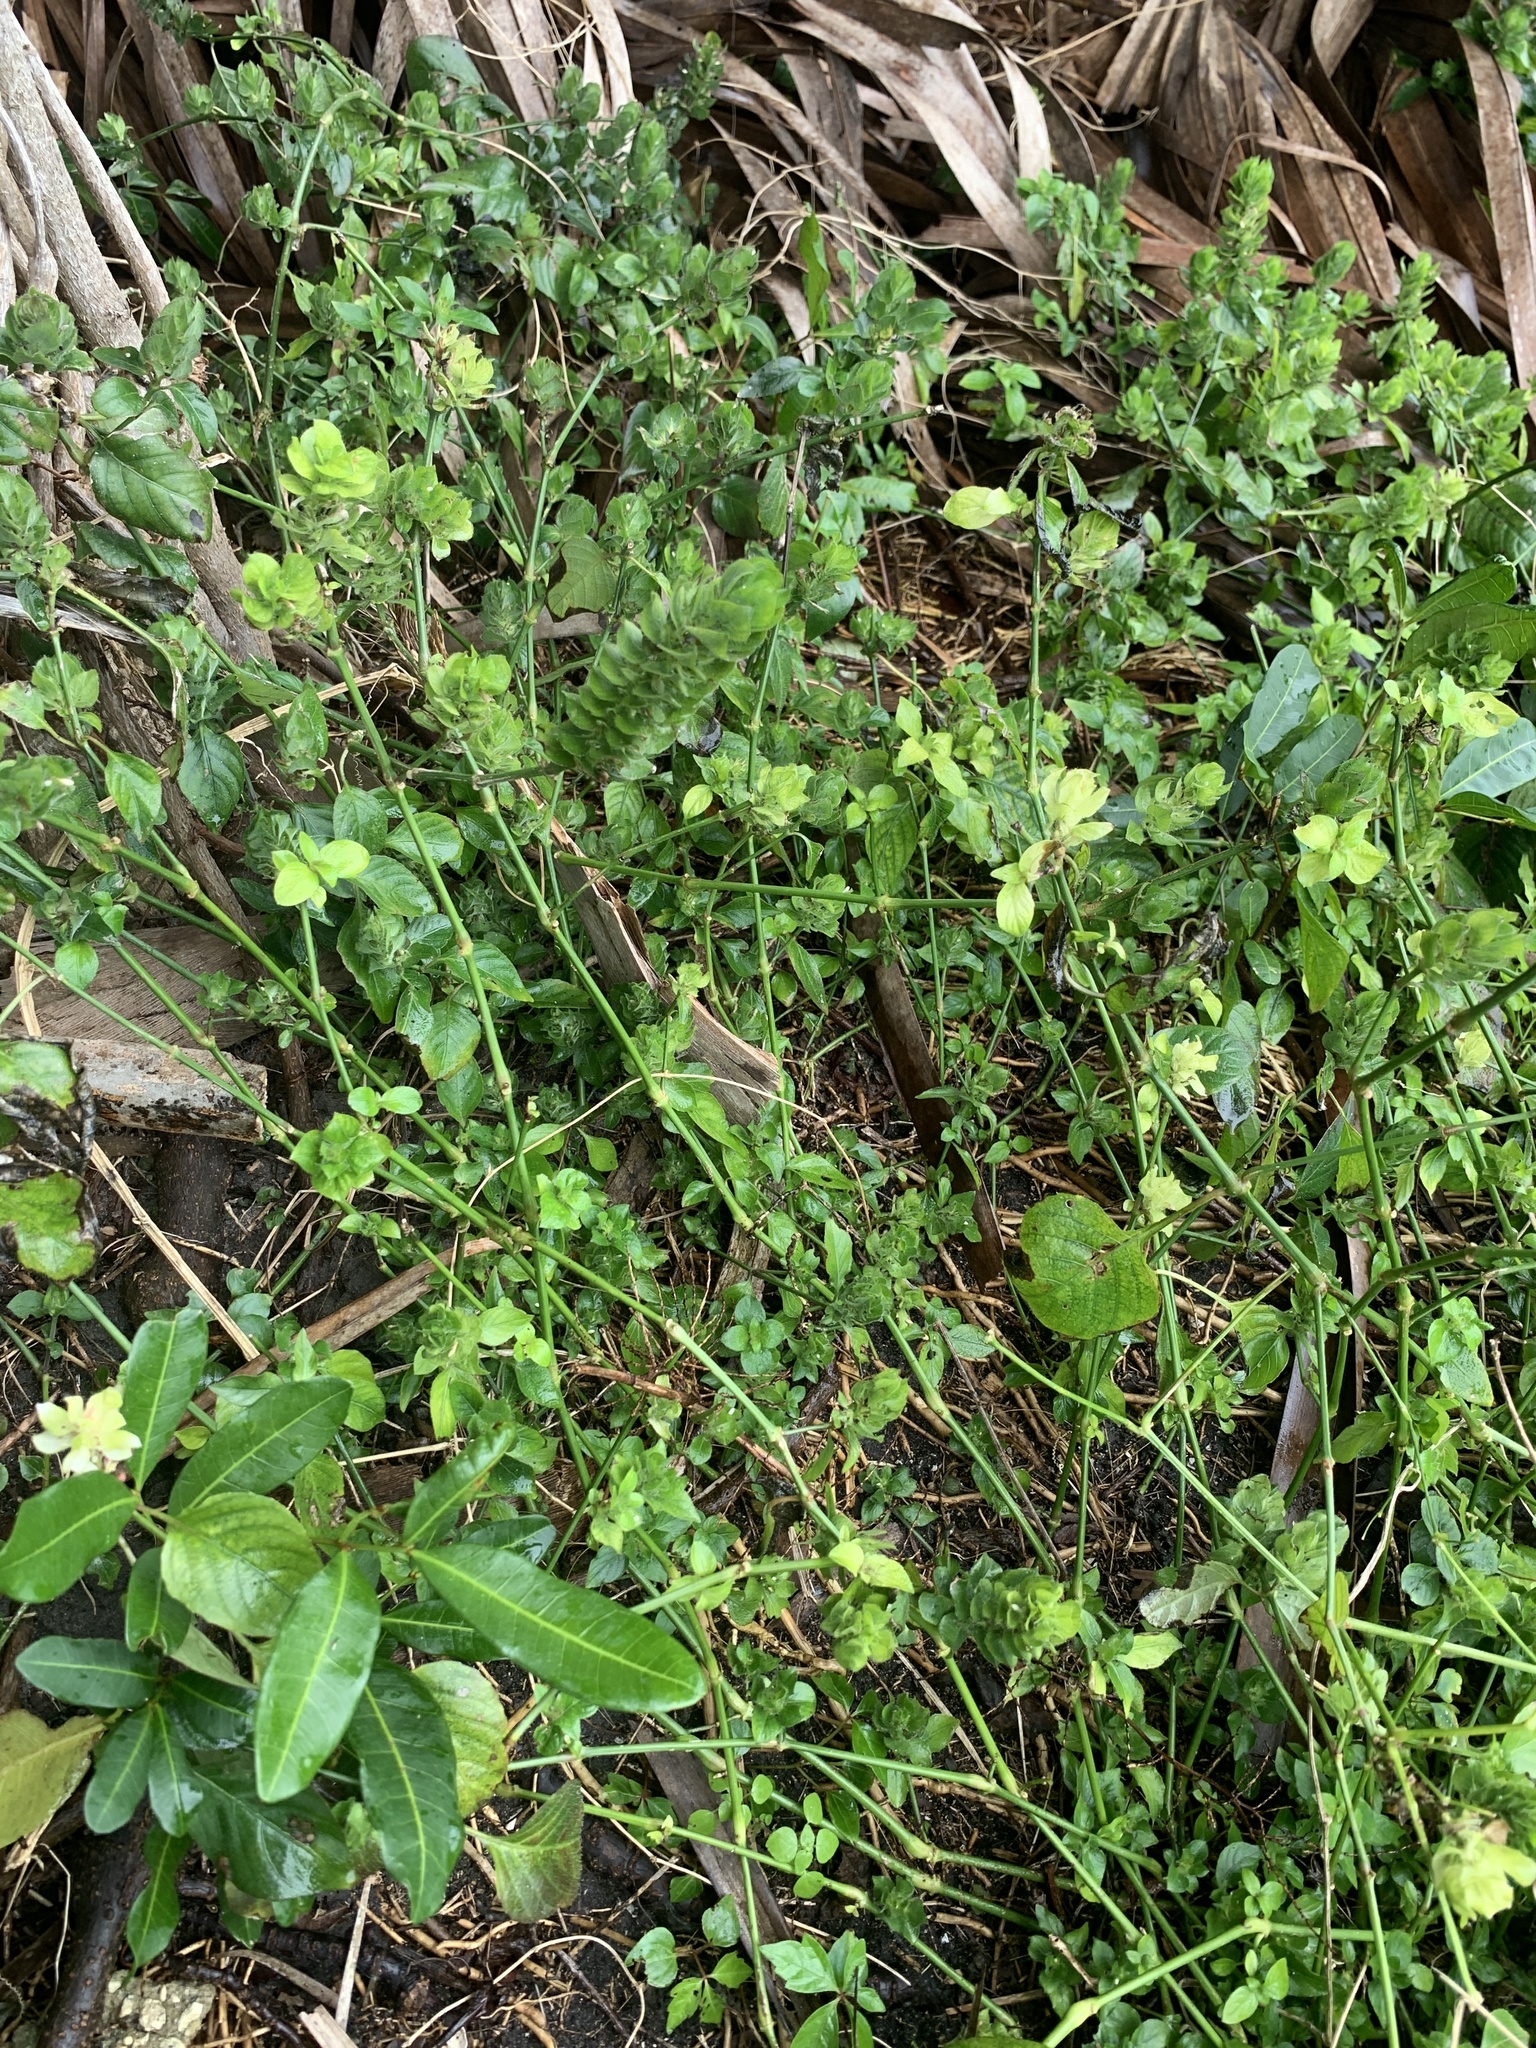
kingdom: Plantae
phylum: Tracheophyta
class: Magnoliopsida
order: Lamiales
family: Acanthaceae
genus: Ruellia
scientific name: Ruellia blechum
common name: Browne's blechum
